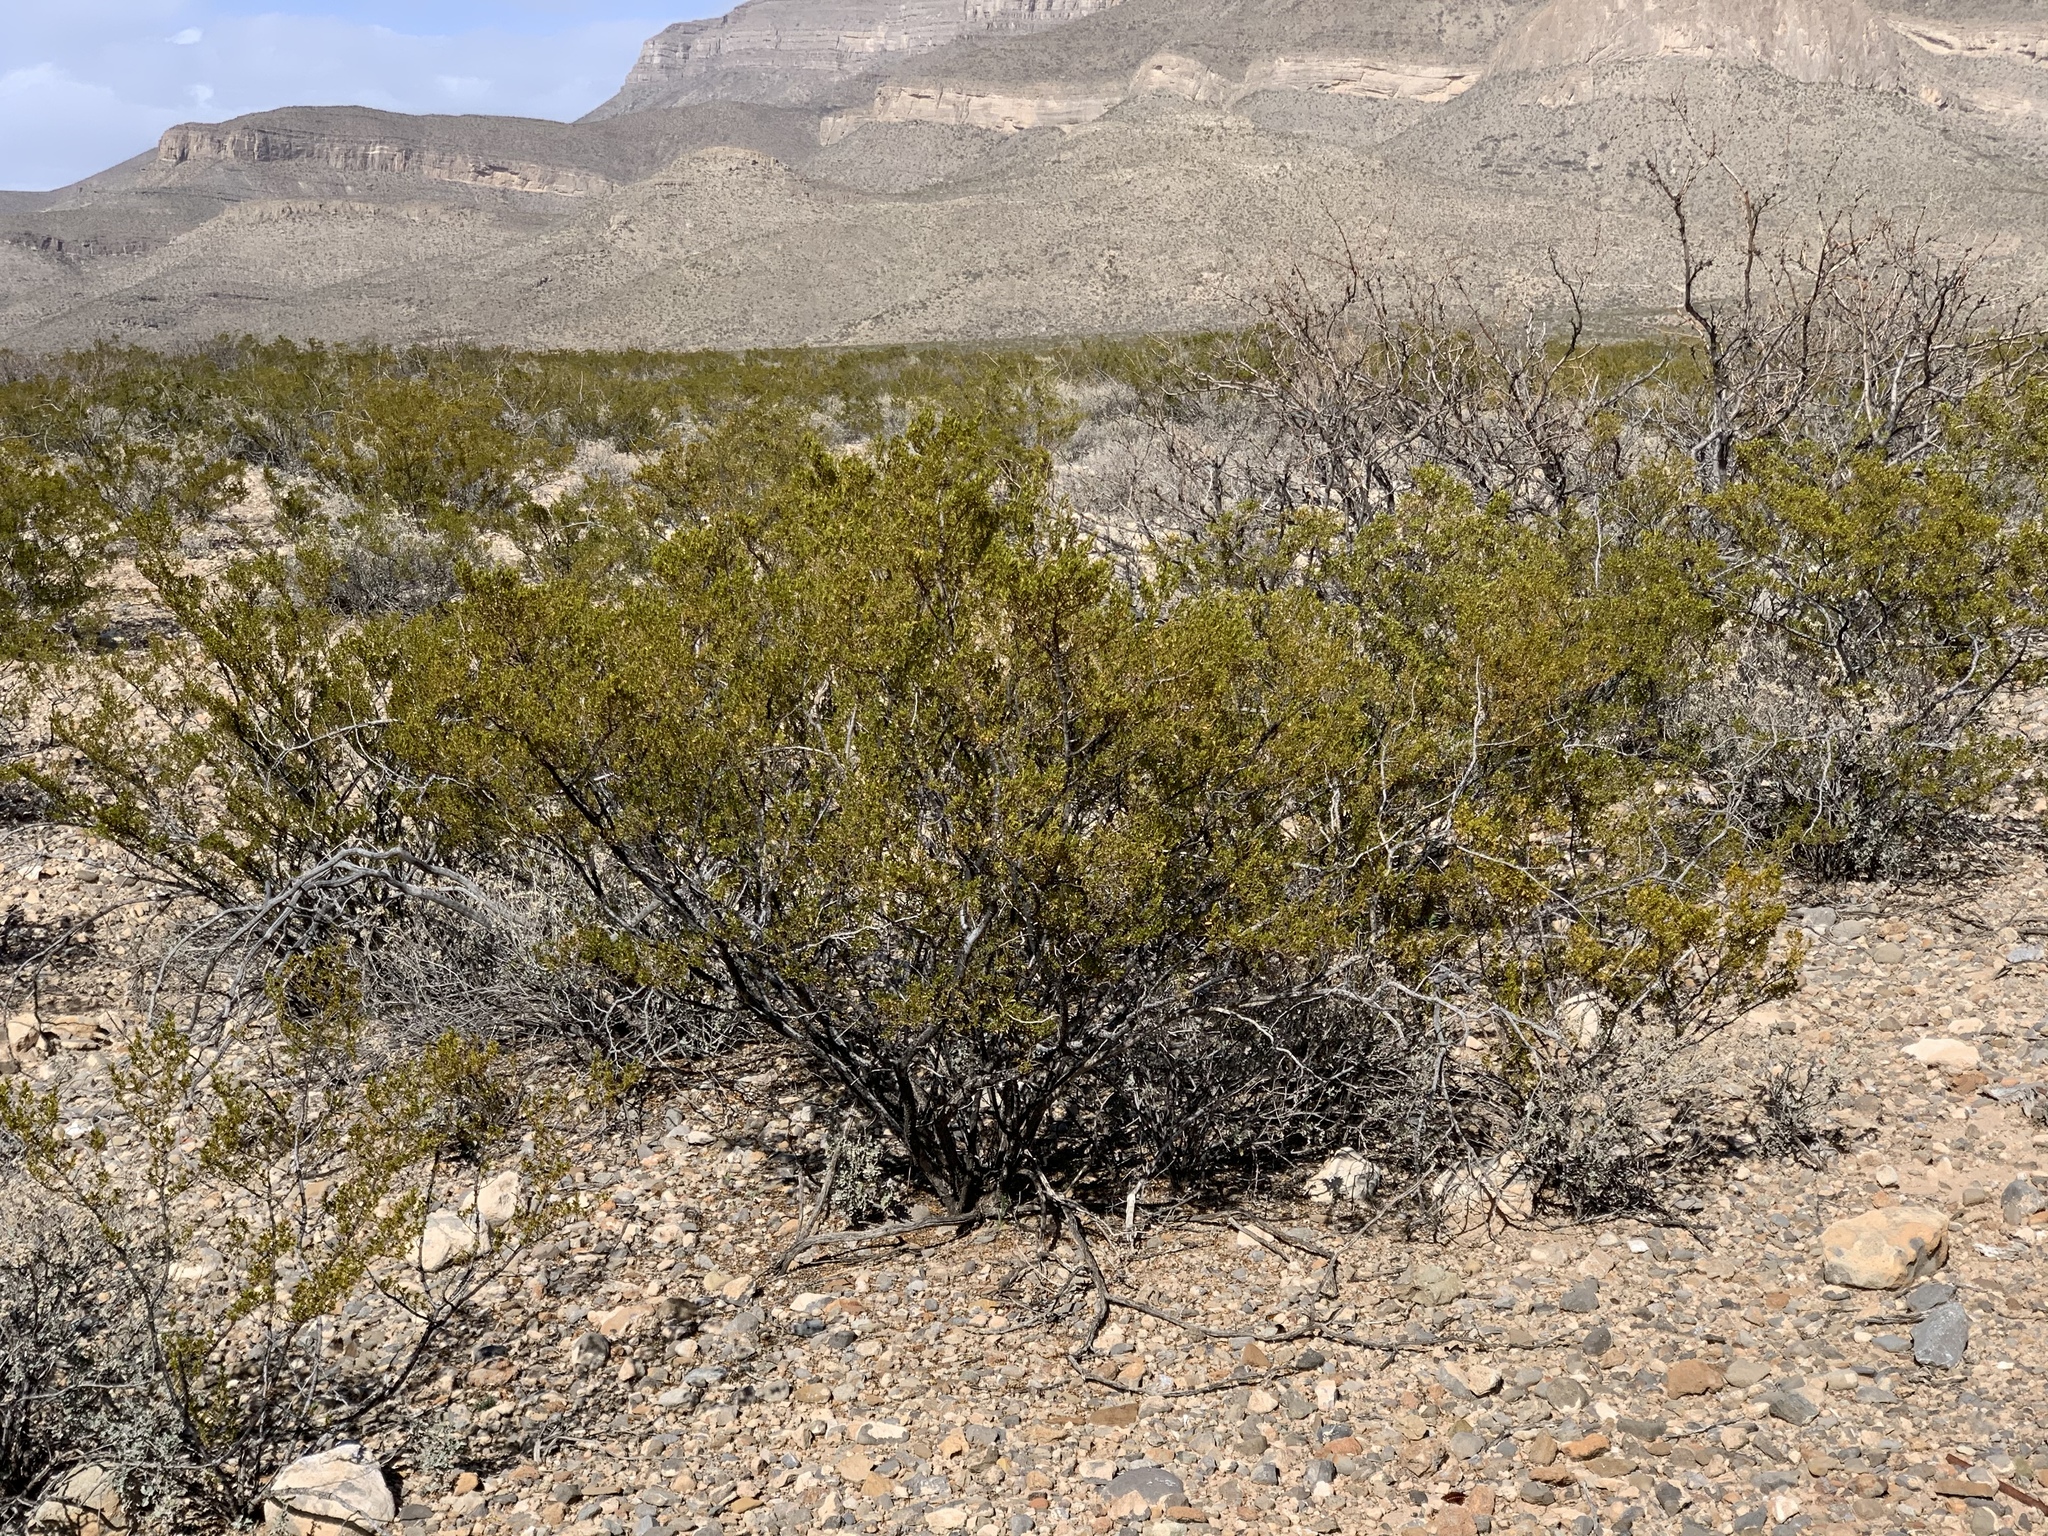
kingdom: Plantae
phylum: Tracheophyta
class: Magnoliopsida
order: Zygophyllales
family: Zygophyllaceae
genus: Larrea
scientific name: Larrea tridentata
